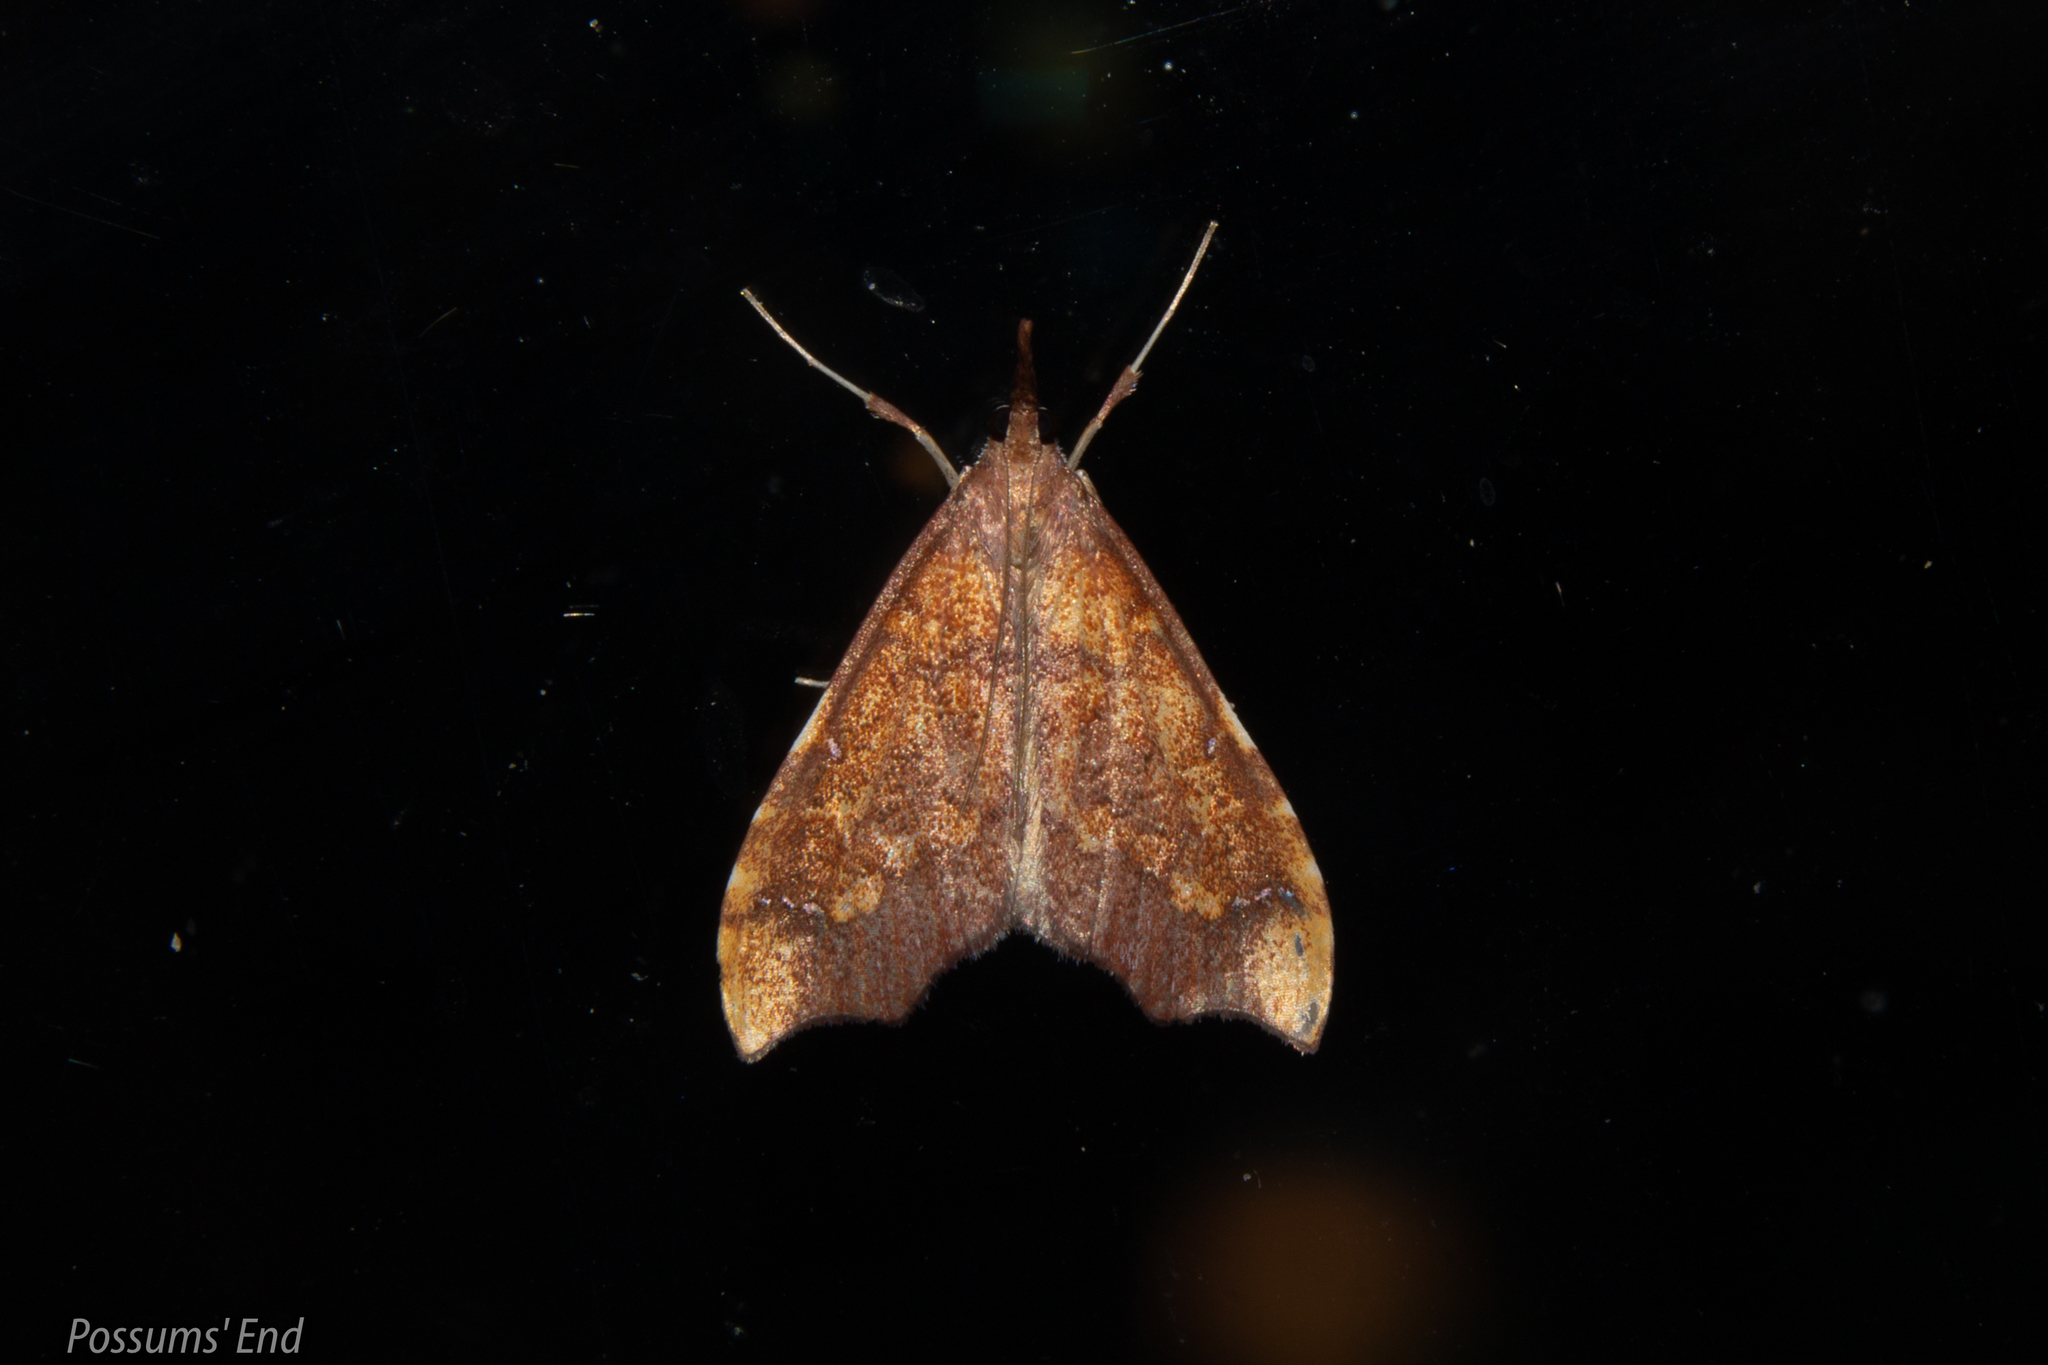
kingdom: Animalia
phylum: Arthropoda
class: Insecta
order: Lepidoptera
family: Crambidae
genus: Deana
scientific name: Deana hybreasalis
